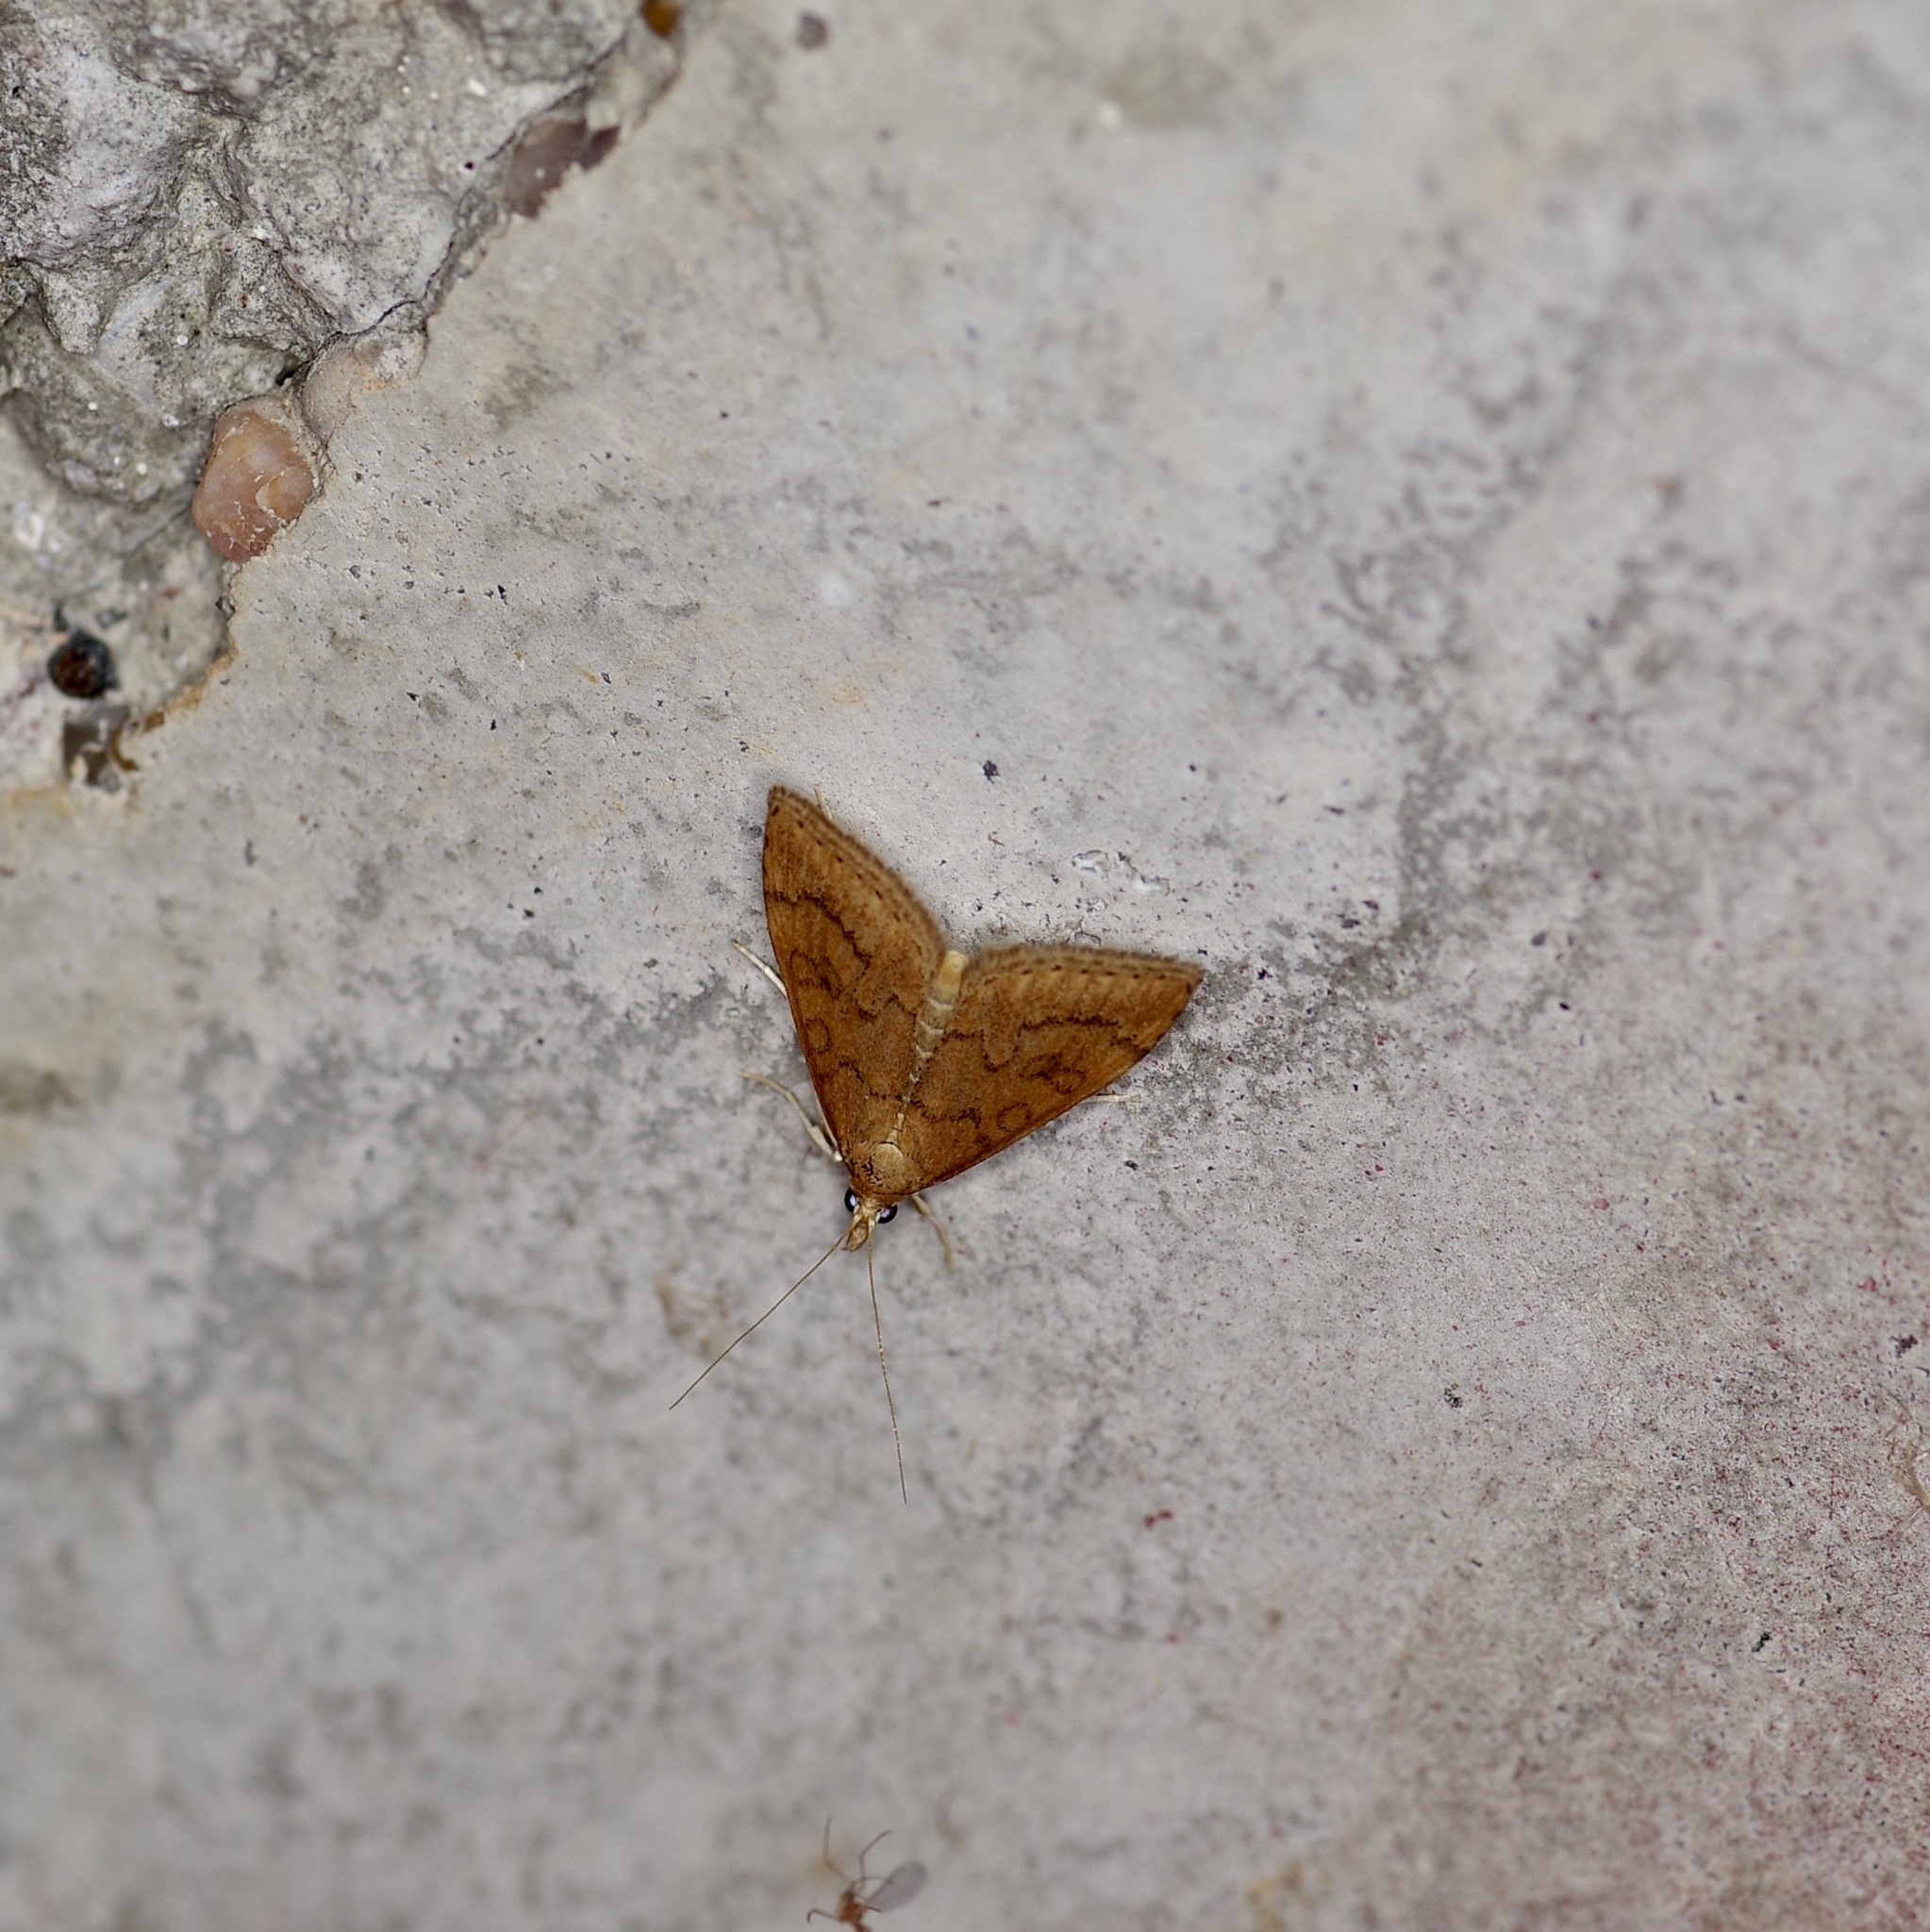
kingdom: Animalia
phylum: Arthropoda
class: Insecta
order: Lepidoptera
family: Crambidae
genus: Udea
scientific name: Udea rubigalis
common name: Celery leaftier moth
